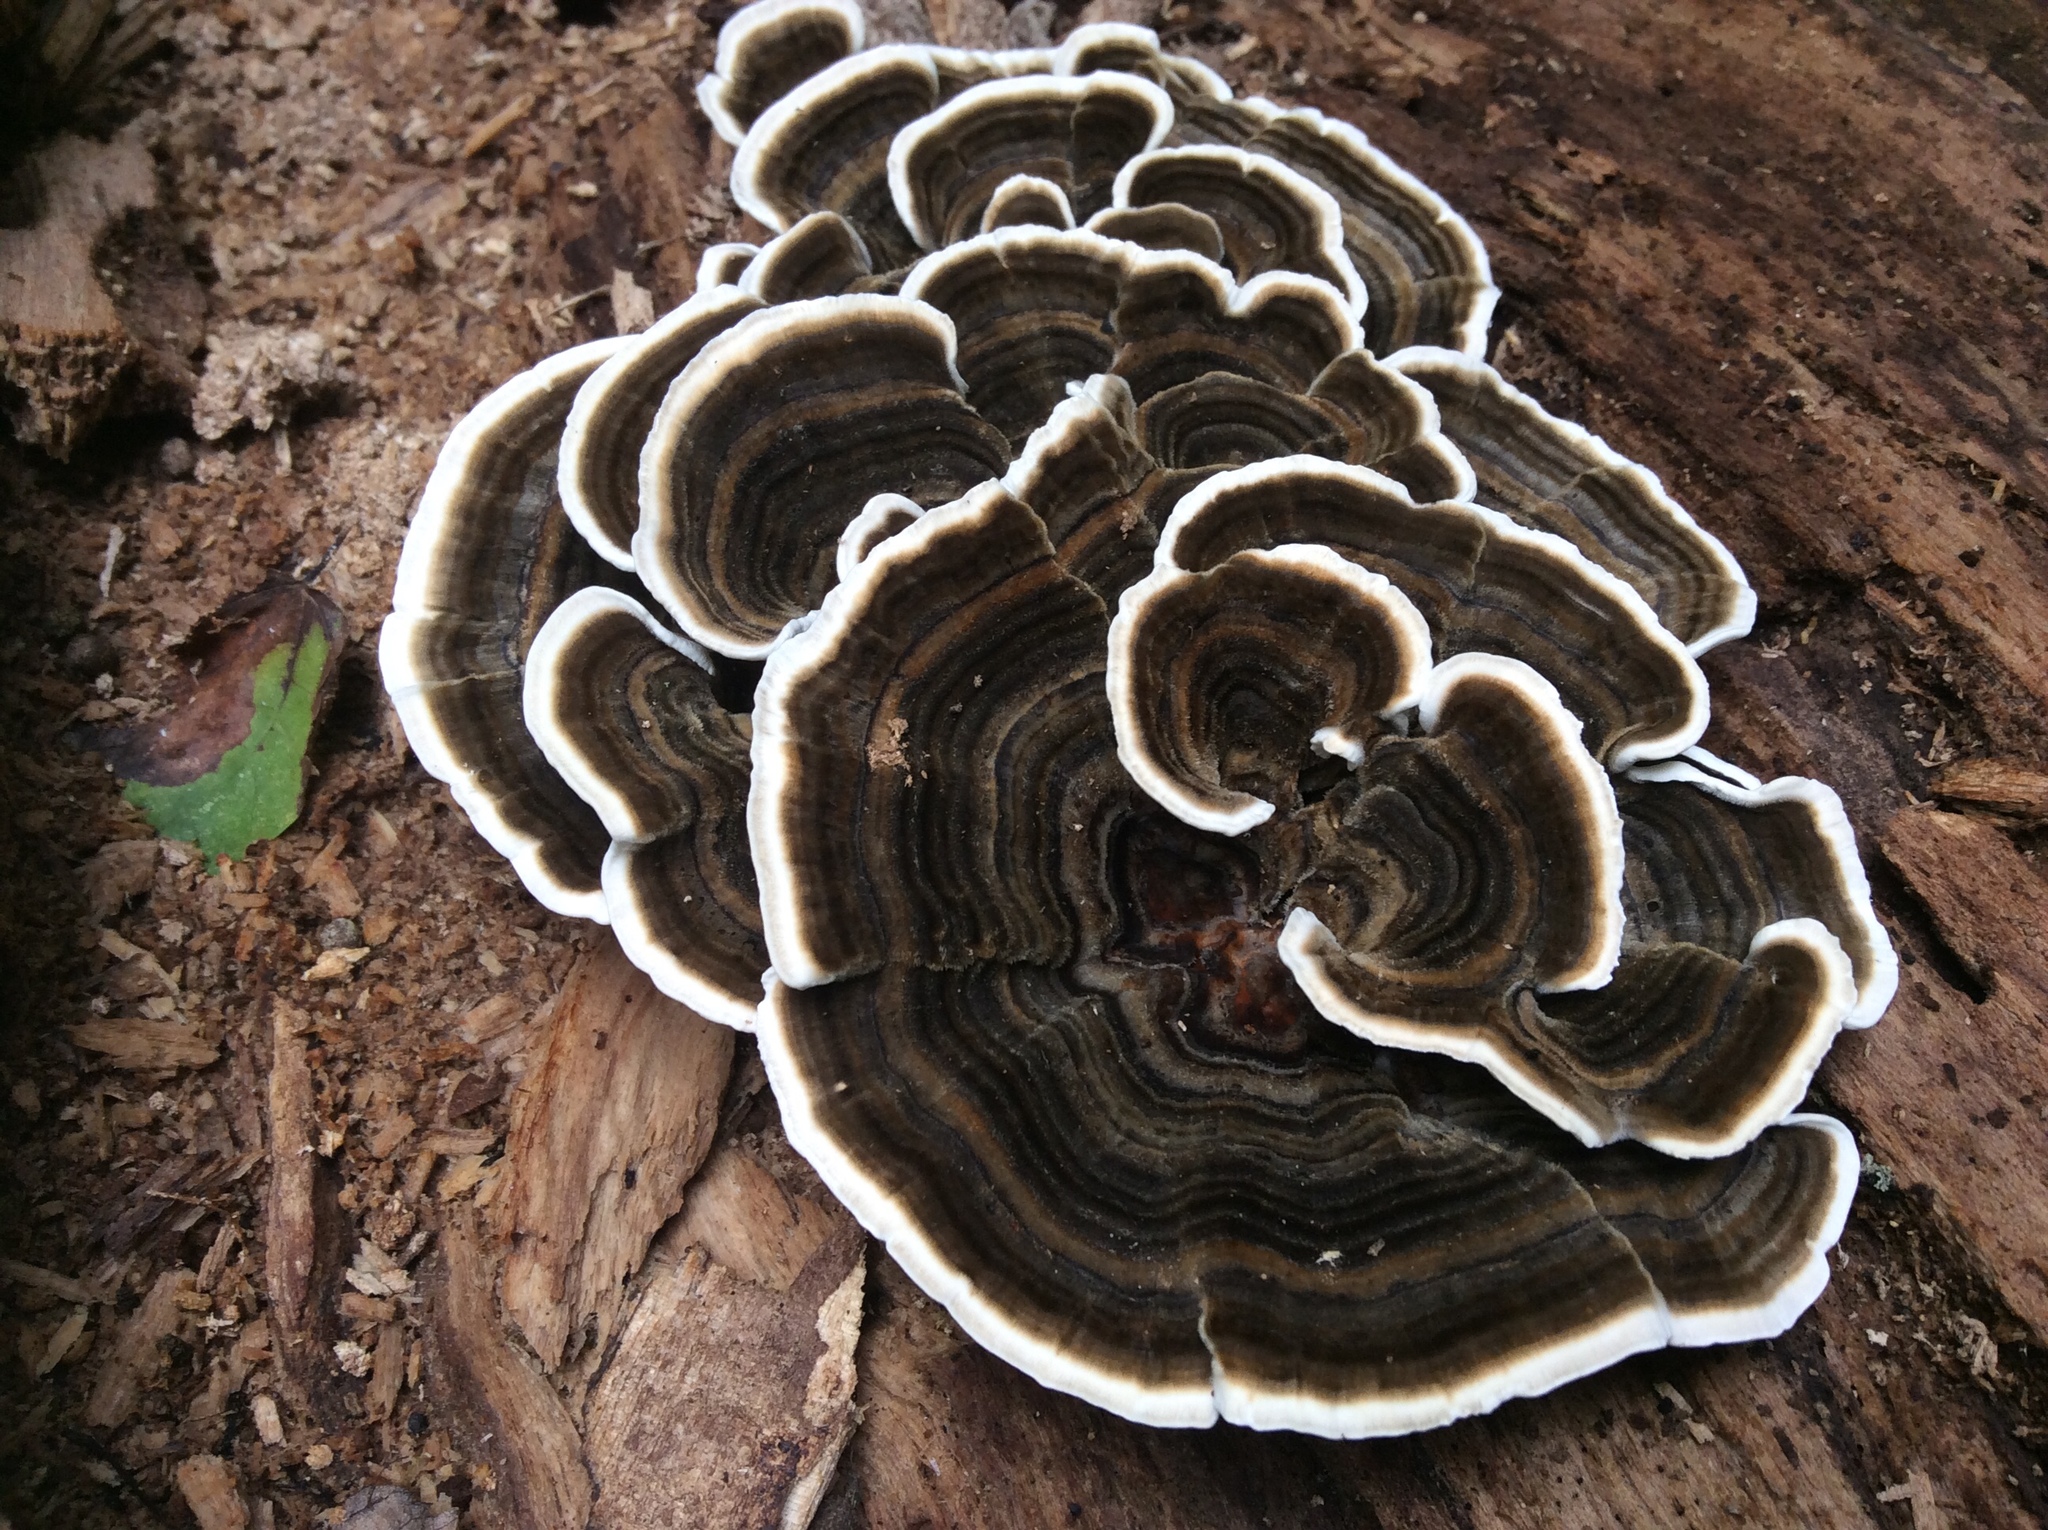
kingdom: Fungi
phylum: Basidiomycota
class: Agaricomycetes
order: Polyporales
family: Polyporaceae
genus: Trametes
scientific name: Trametes versicolor
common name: Turkeytail
